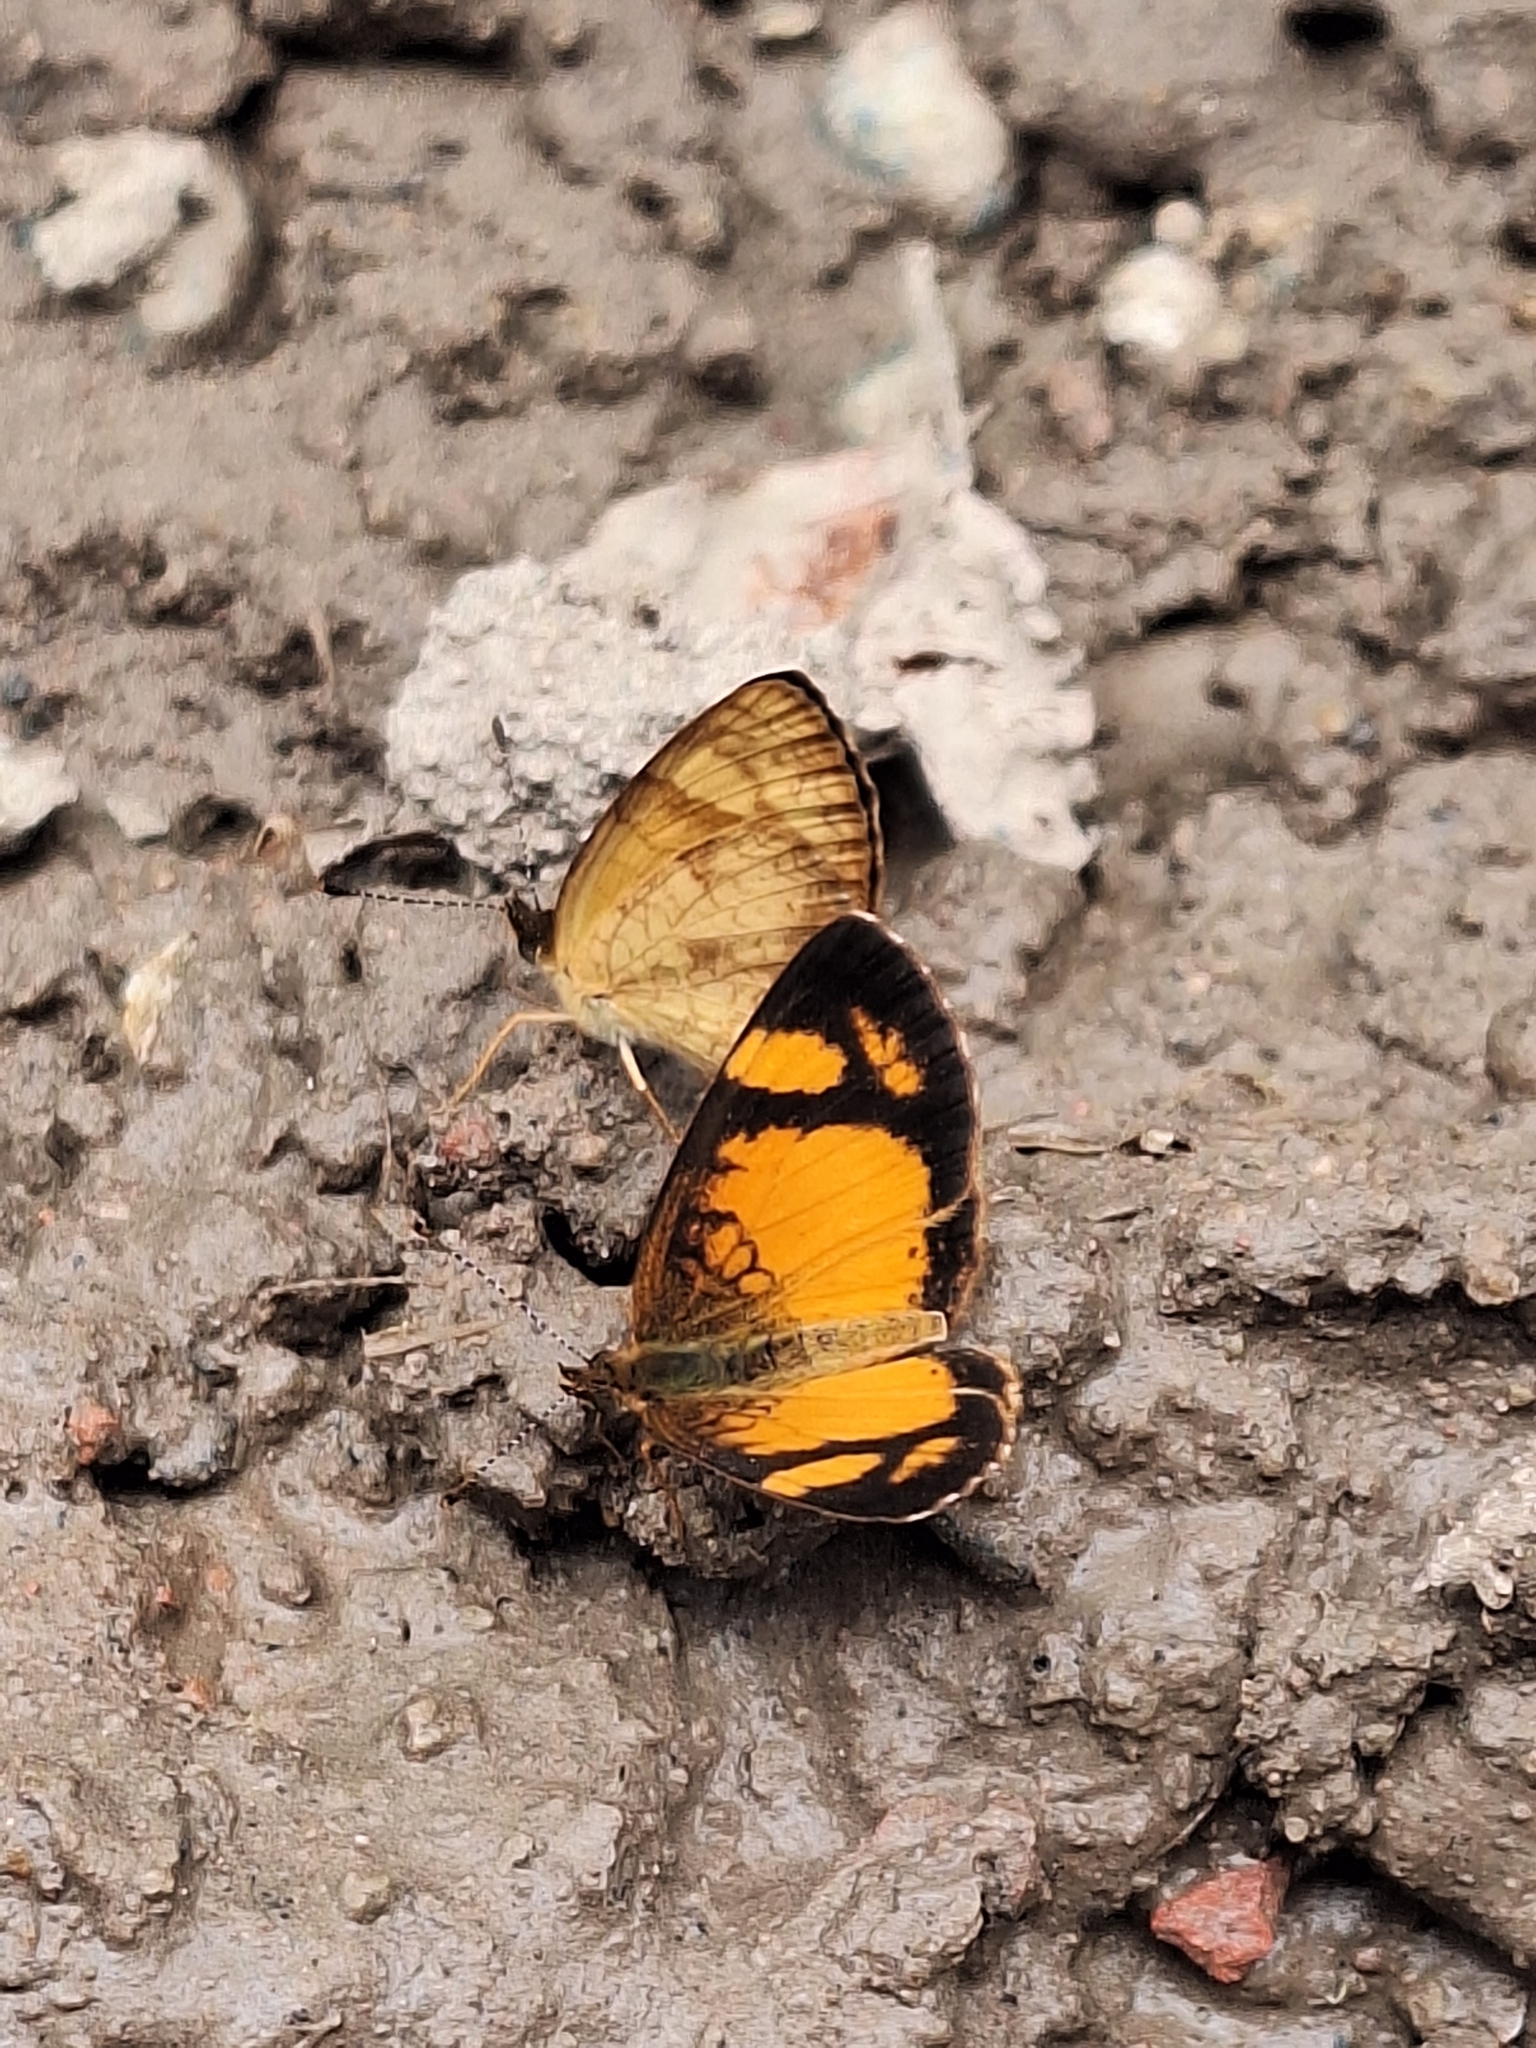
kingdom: Animalia
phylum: Arthropoda
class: Insecta
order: Lepidoptera
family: Nymphalidae
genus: Tegosa
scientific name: Tegosa claudina
